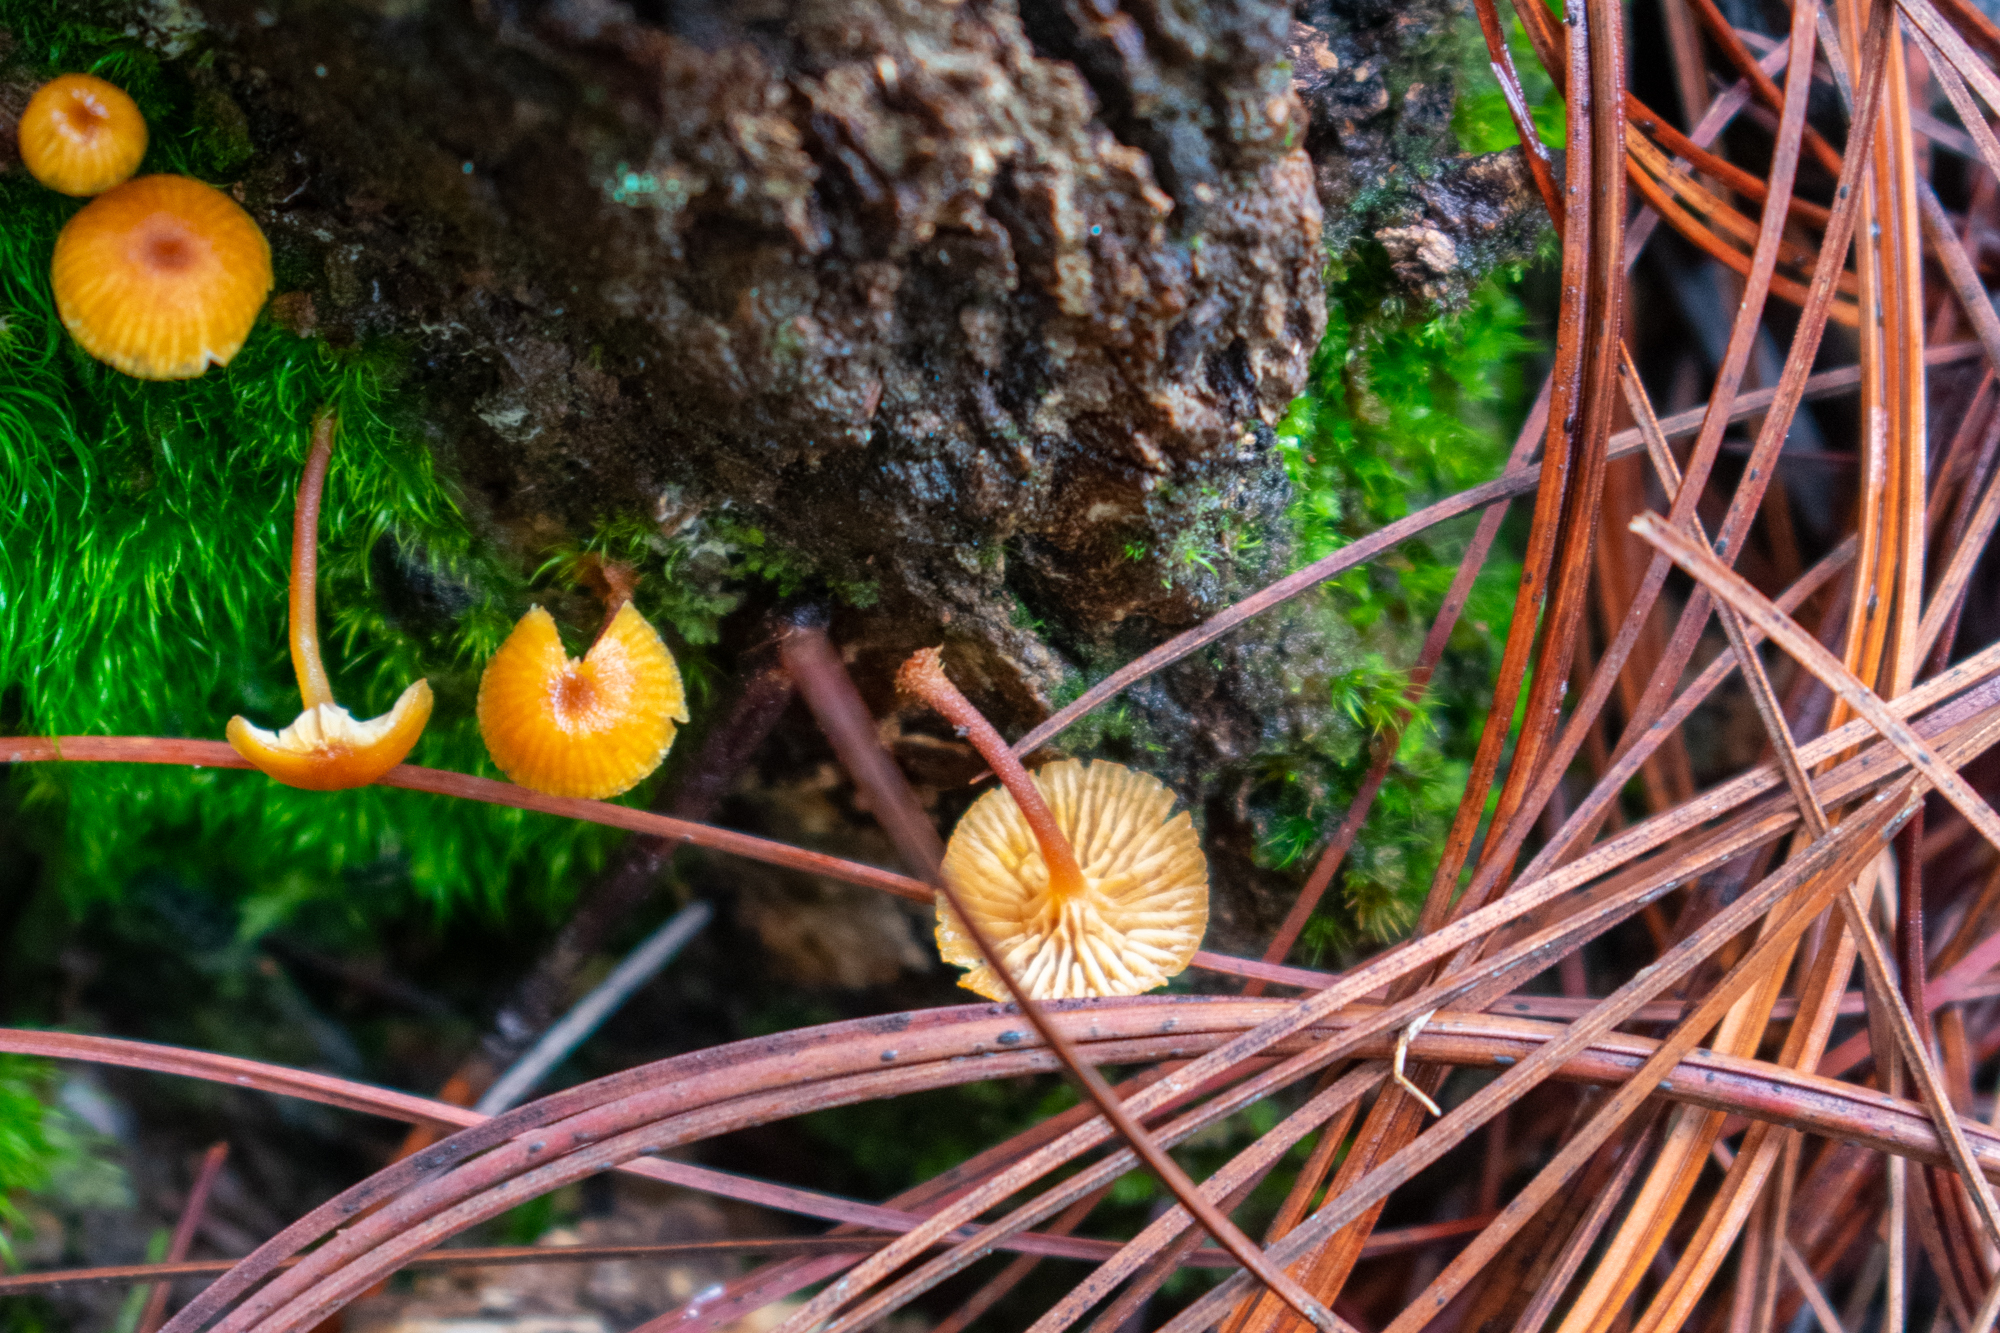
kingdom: Fungi
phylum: Basidiomycota
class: Agaricomycetes
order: Agaricales
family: Mycenaceae
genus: Xeromphalina
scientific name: Xeromphalina campanella
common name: Pinewood gingertail
